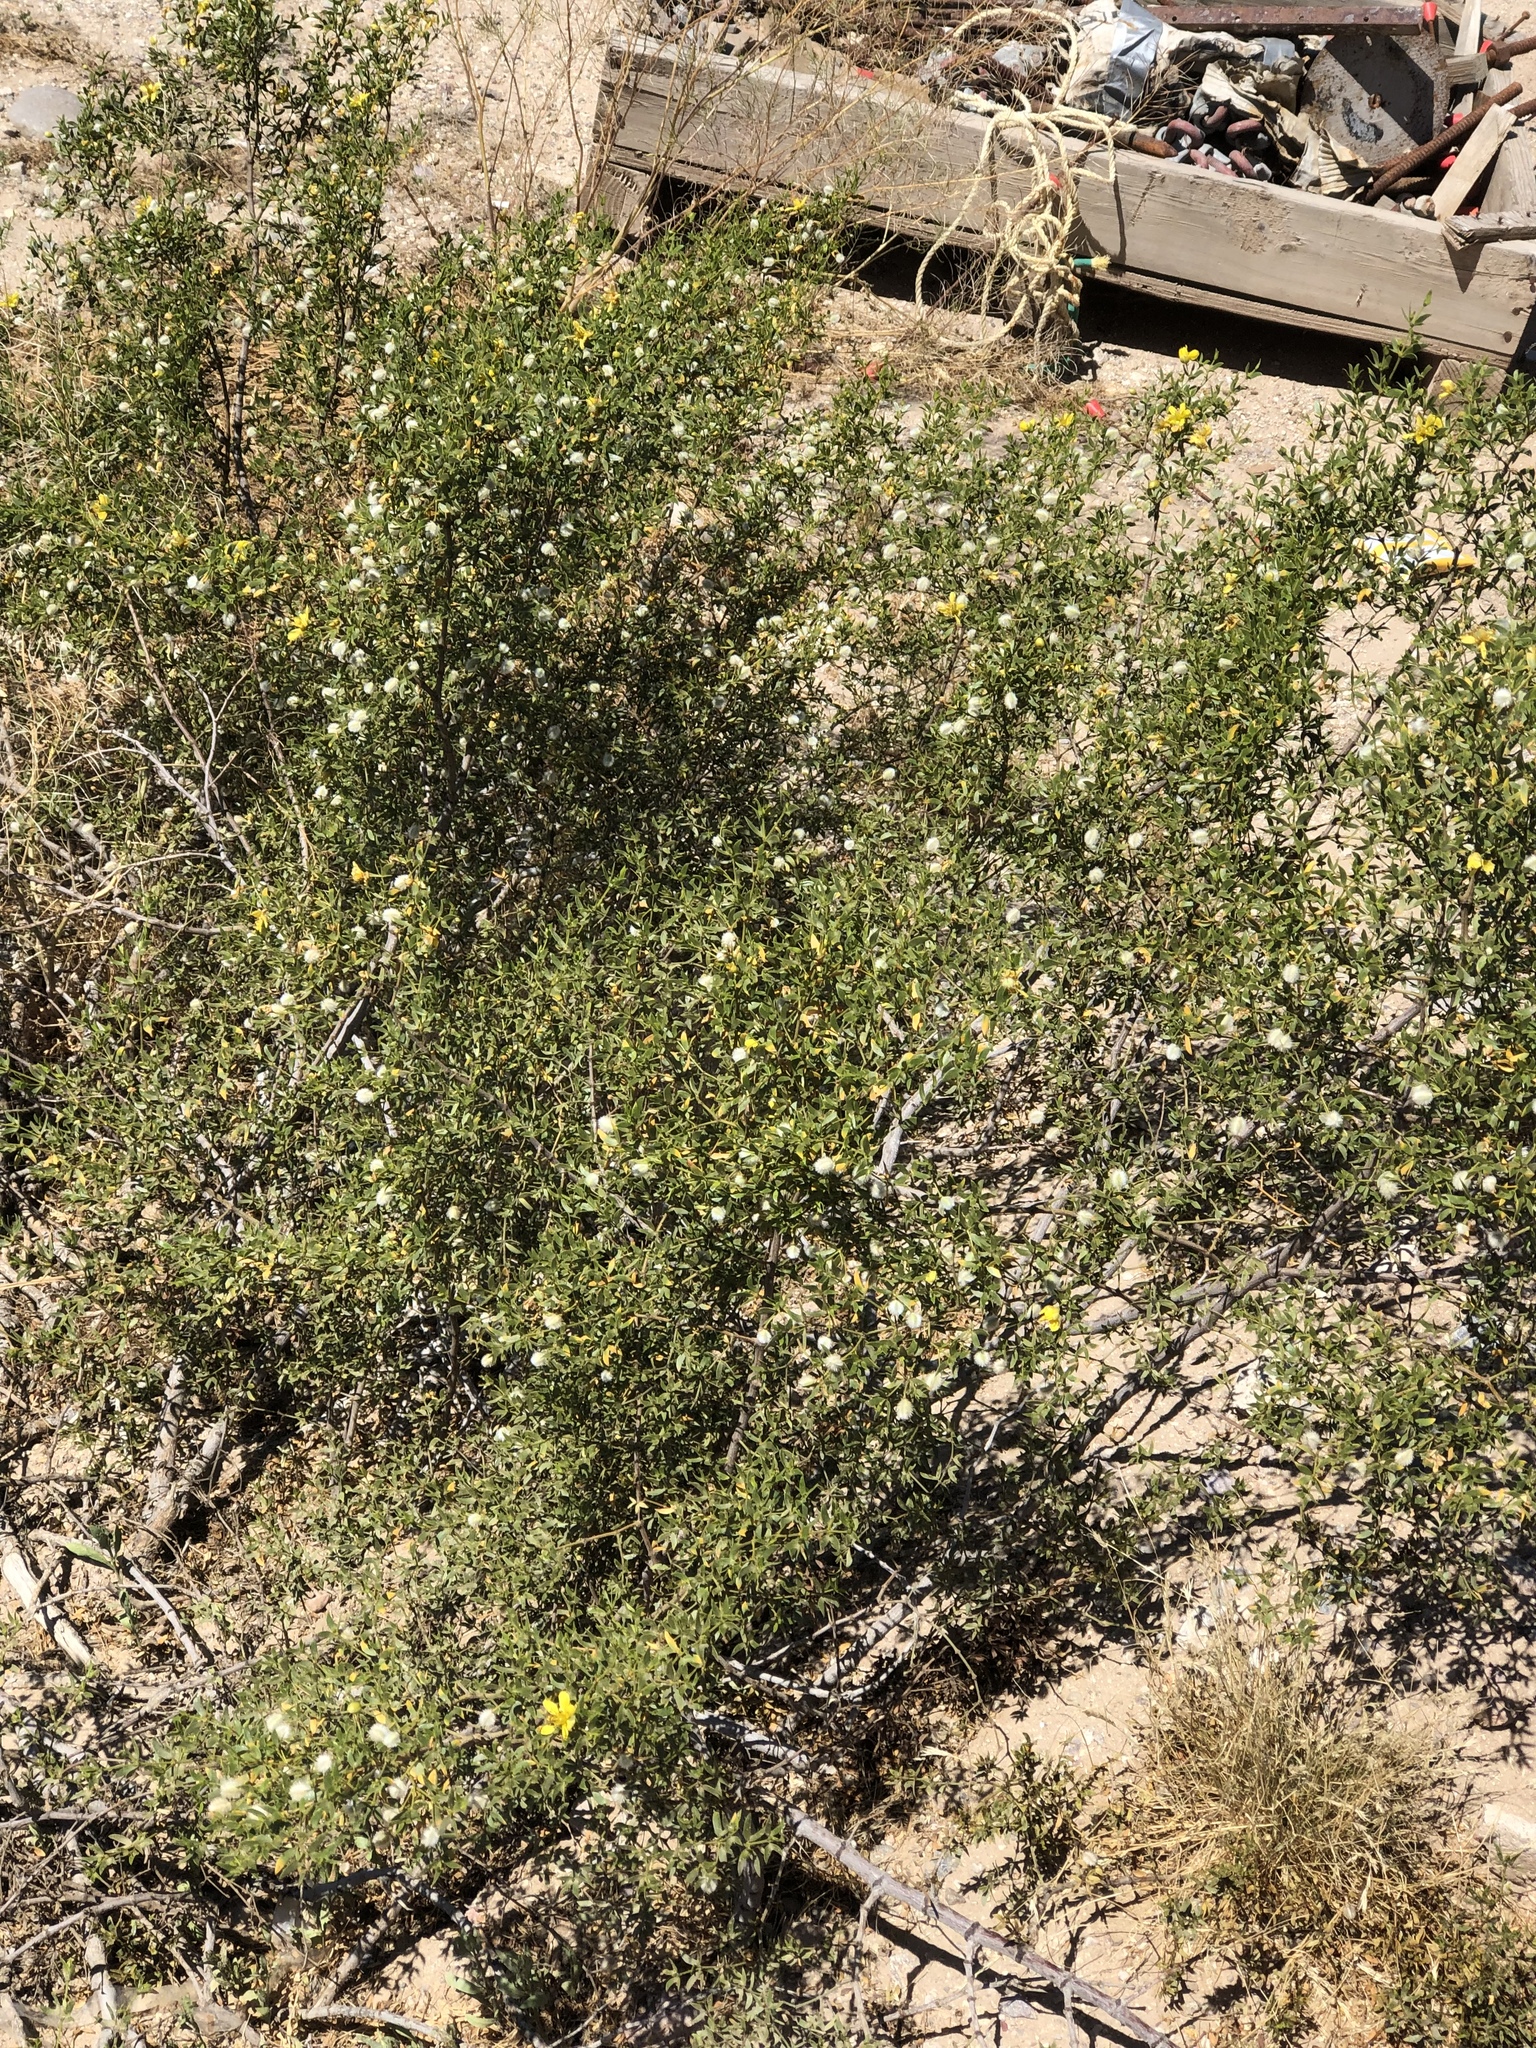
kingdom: Plantae
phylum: Tracheophyta
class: Magnoliopsida
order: Zygophyllales
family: Zygophyllaceae
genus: Larrea
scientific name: Larrea tridentata
